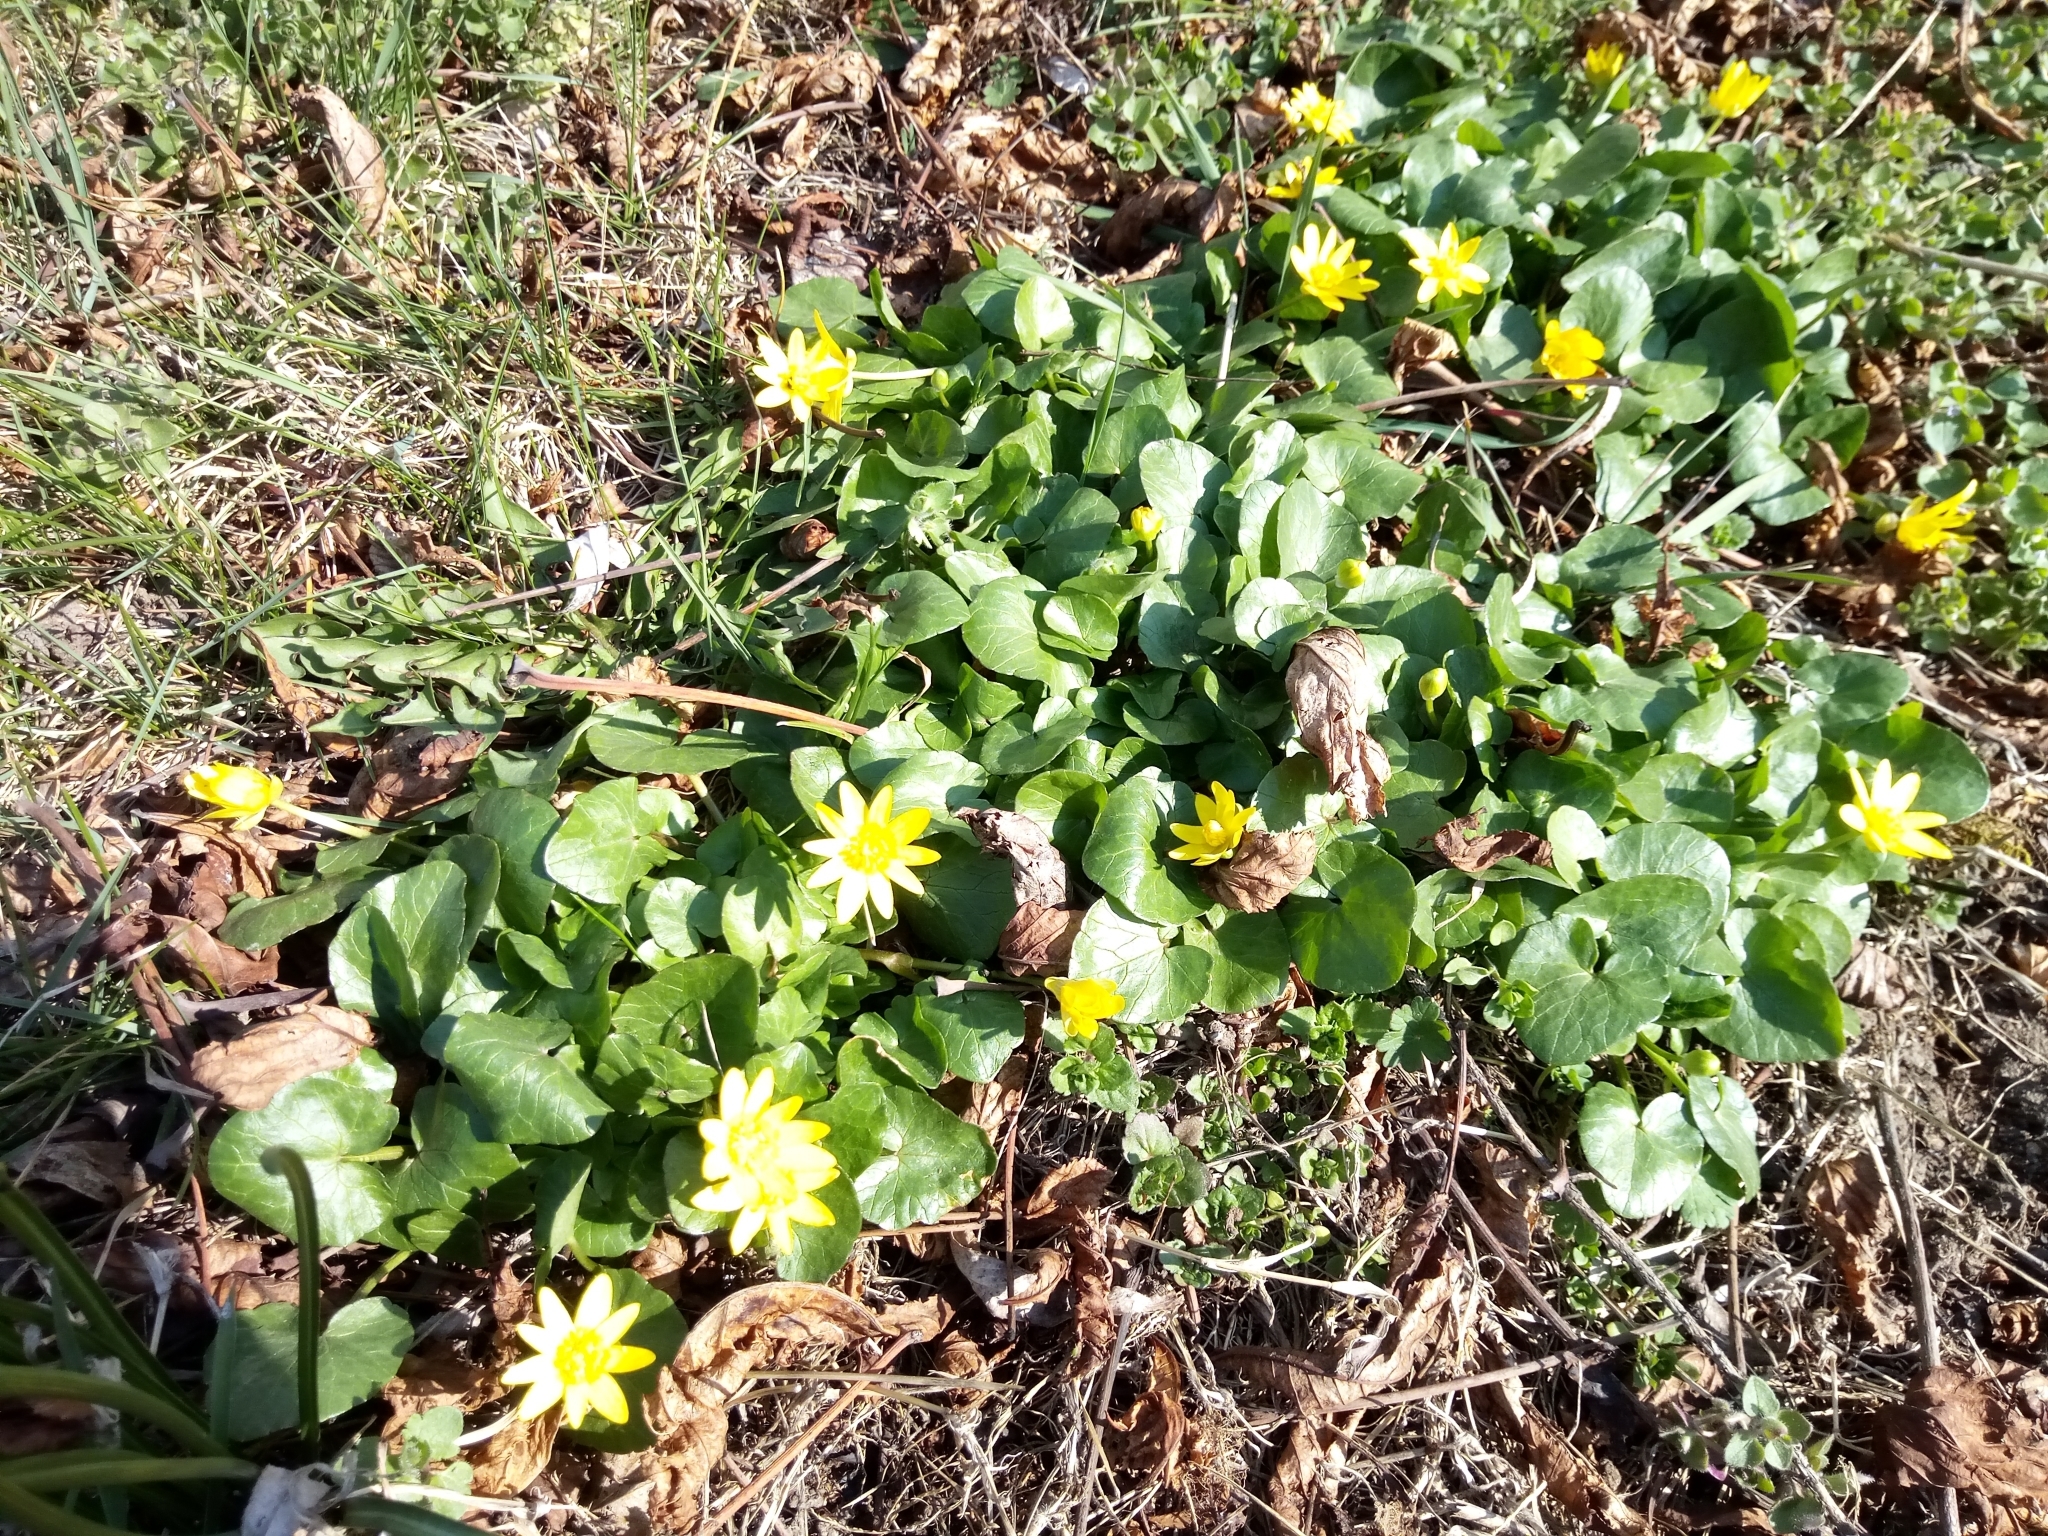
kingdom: Plantae
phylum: Tracheophyta
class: Magnoliopsida
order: Ranunculales
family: Ranunculaceae
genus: Ficaria
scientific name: Ficaria verna
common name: Lesser celandine
